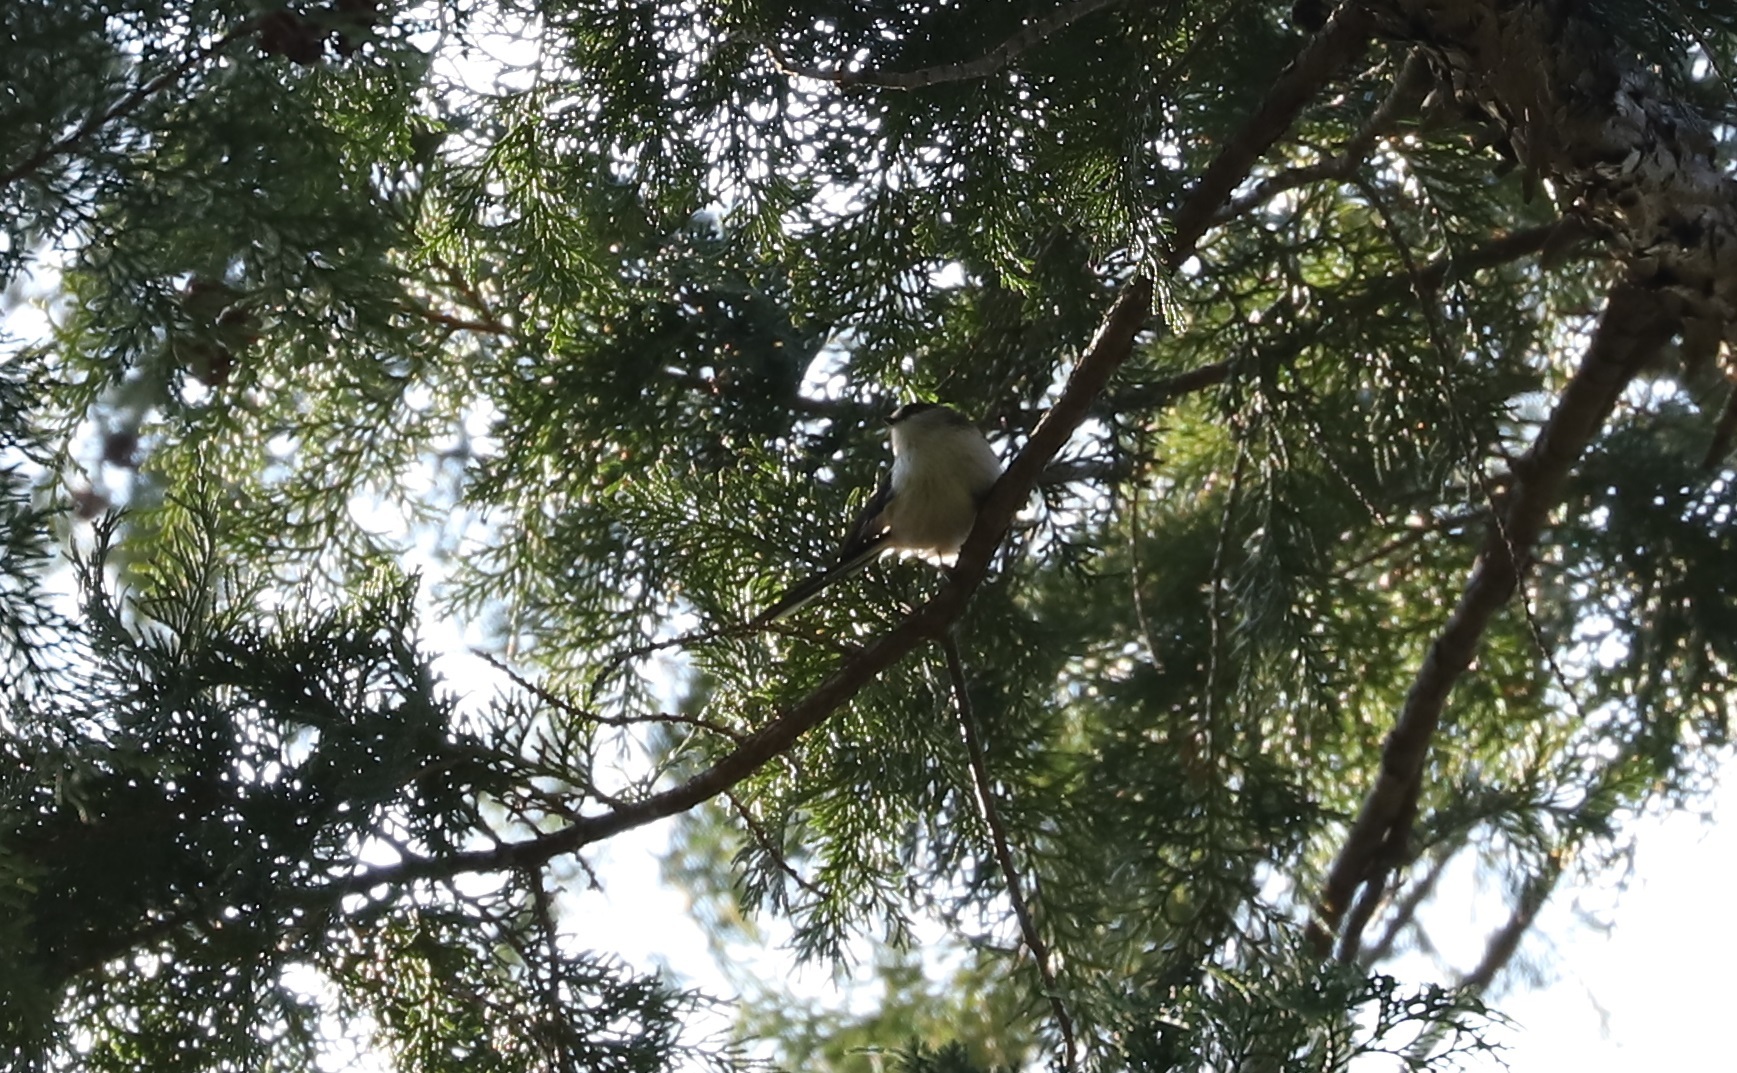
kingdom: Animalia
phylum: Chordata
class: Aves
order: Passeriformes
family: Aegithalidae
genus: Aegithalos
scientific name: Aegithalos caudatus
